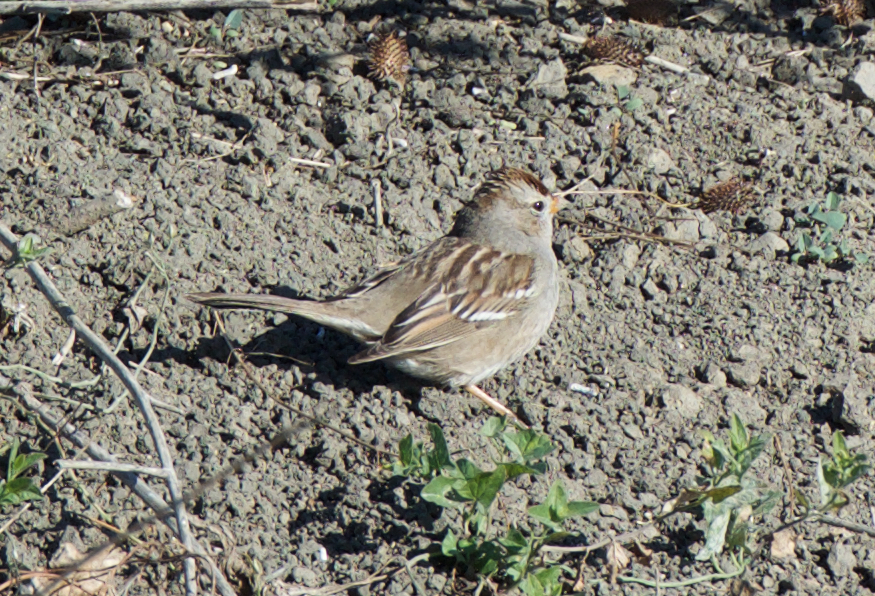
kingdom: Animalia
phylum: Chordata
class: Aves
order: Passeriformes
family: Passerellidae
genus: Zonotrichia
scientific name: Zonotrichia leucophrys
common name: White-crowned sparrow
